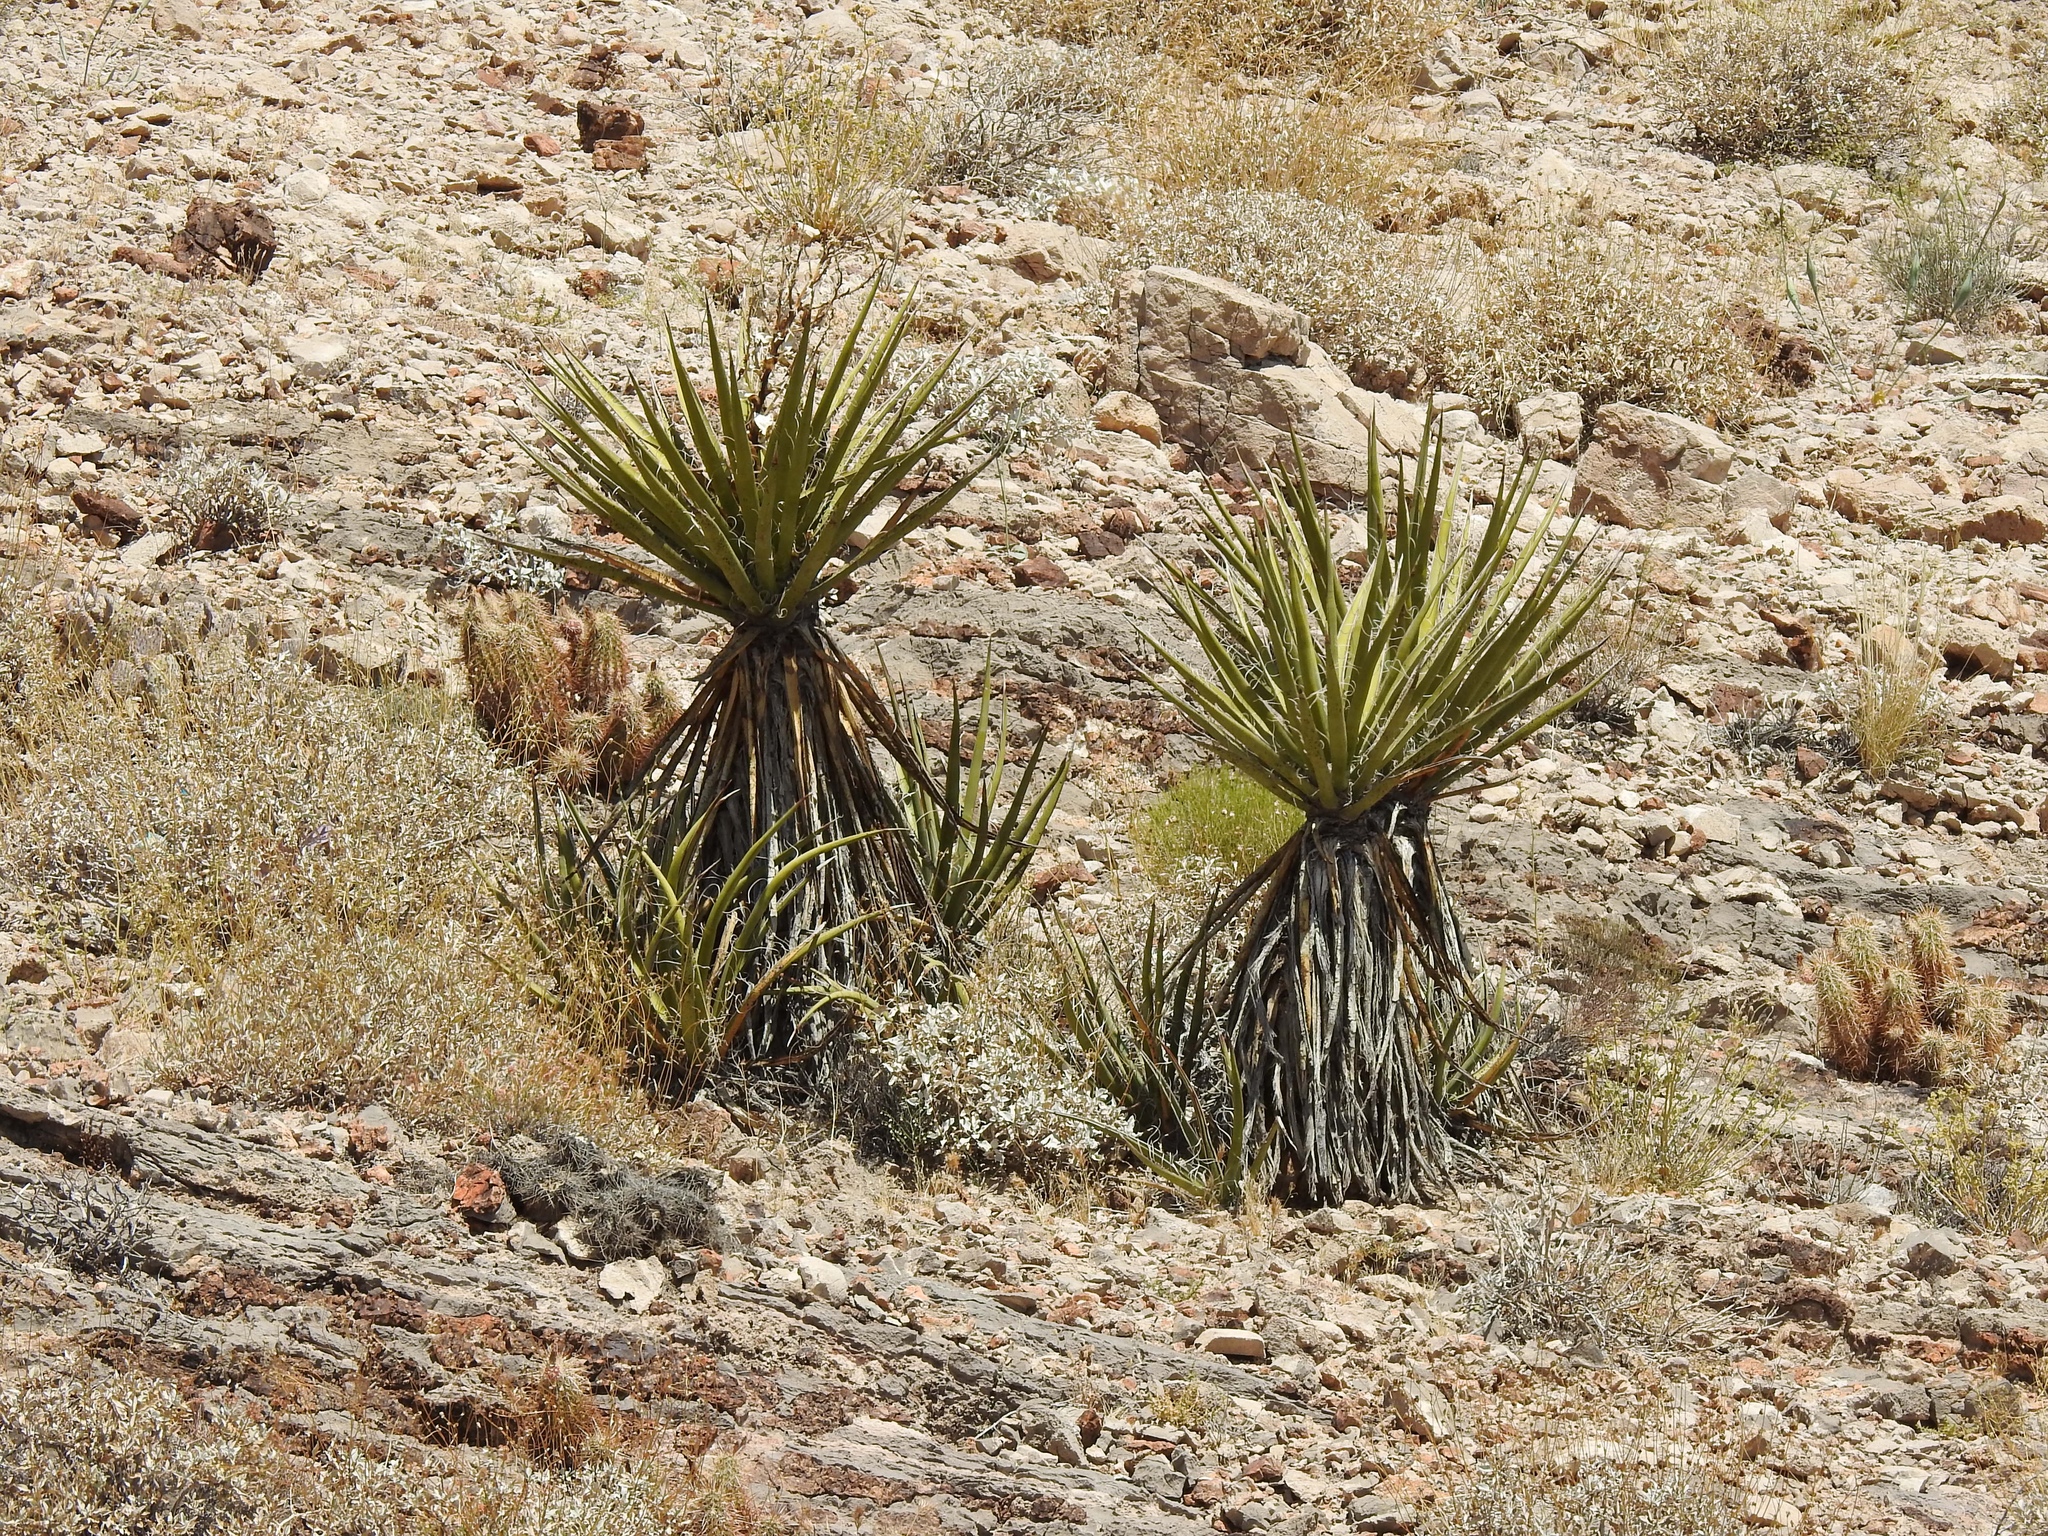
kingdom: Plantae
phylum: Tracheophyta
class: Liliopsida
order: Asparagales
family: Asparagaceae
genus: Yucca
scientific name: Yucca schidigera
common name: Mojave yucca
